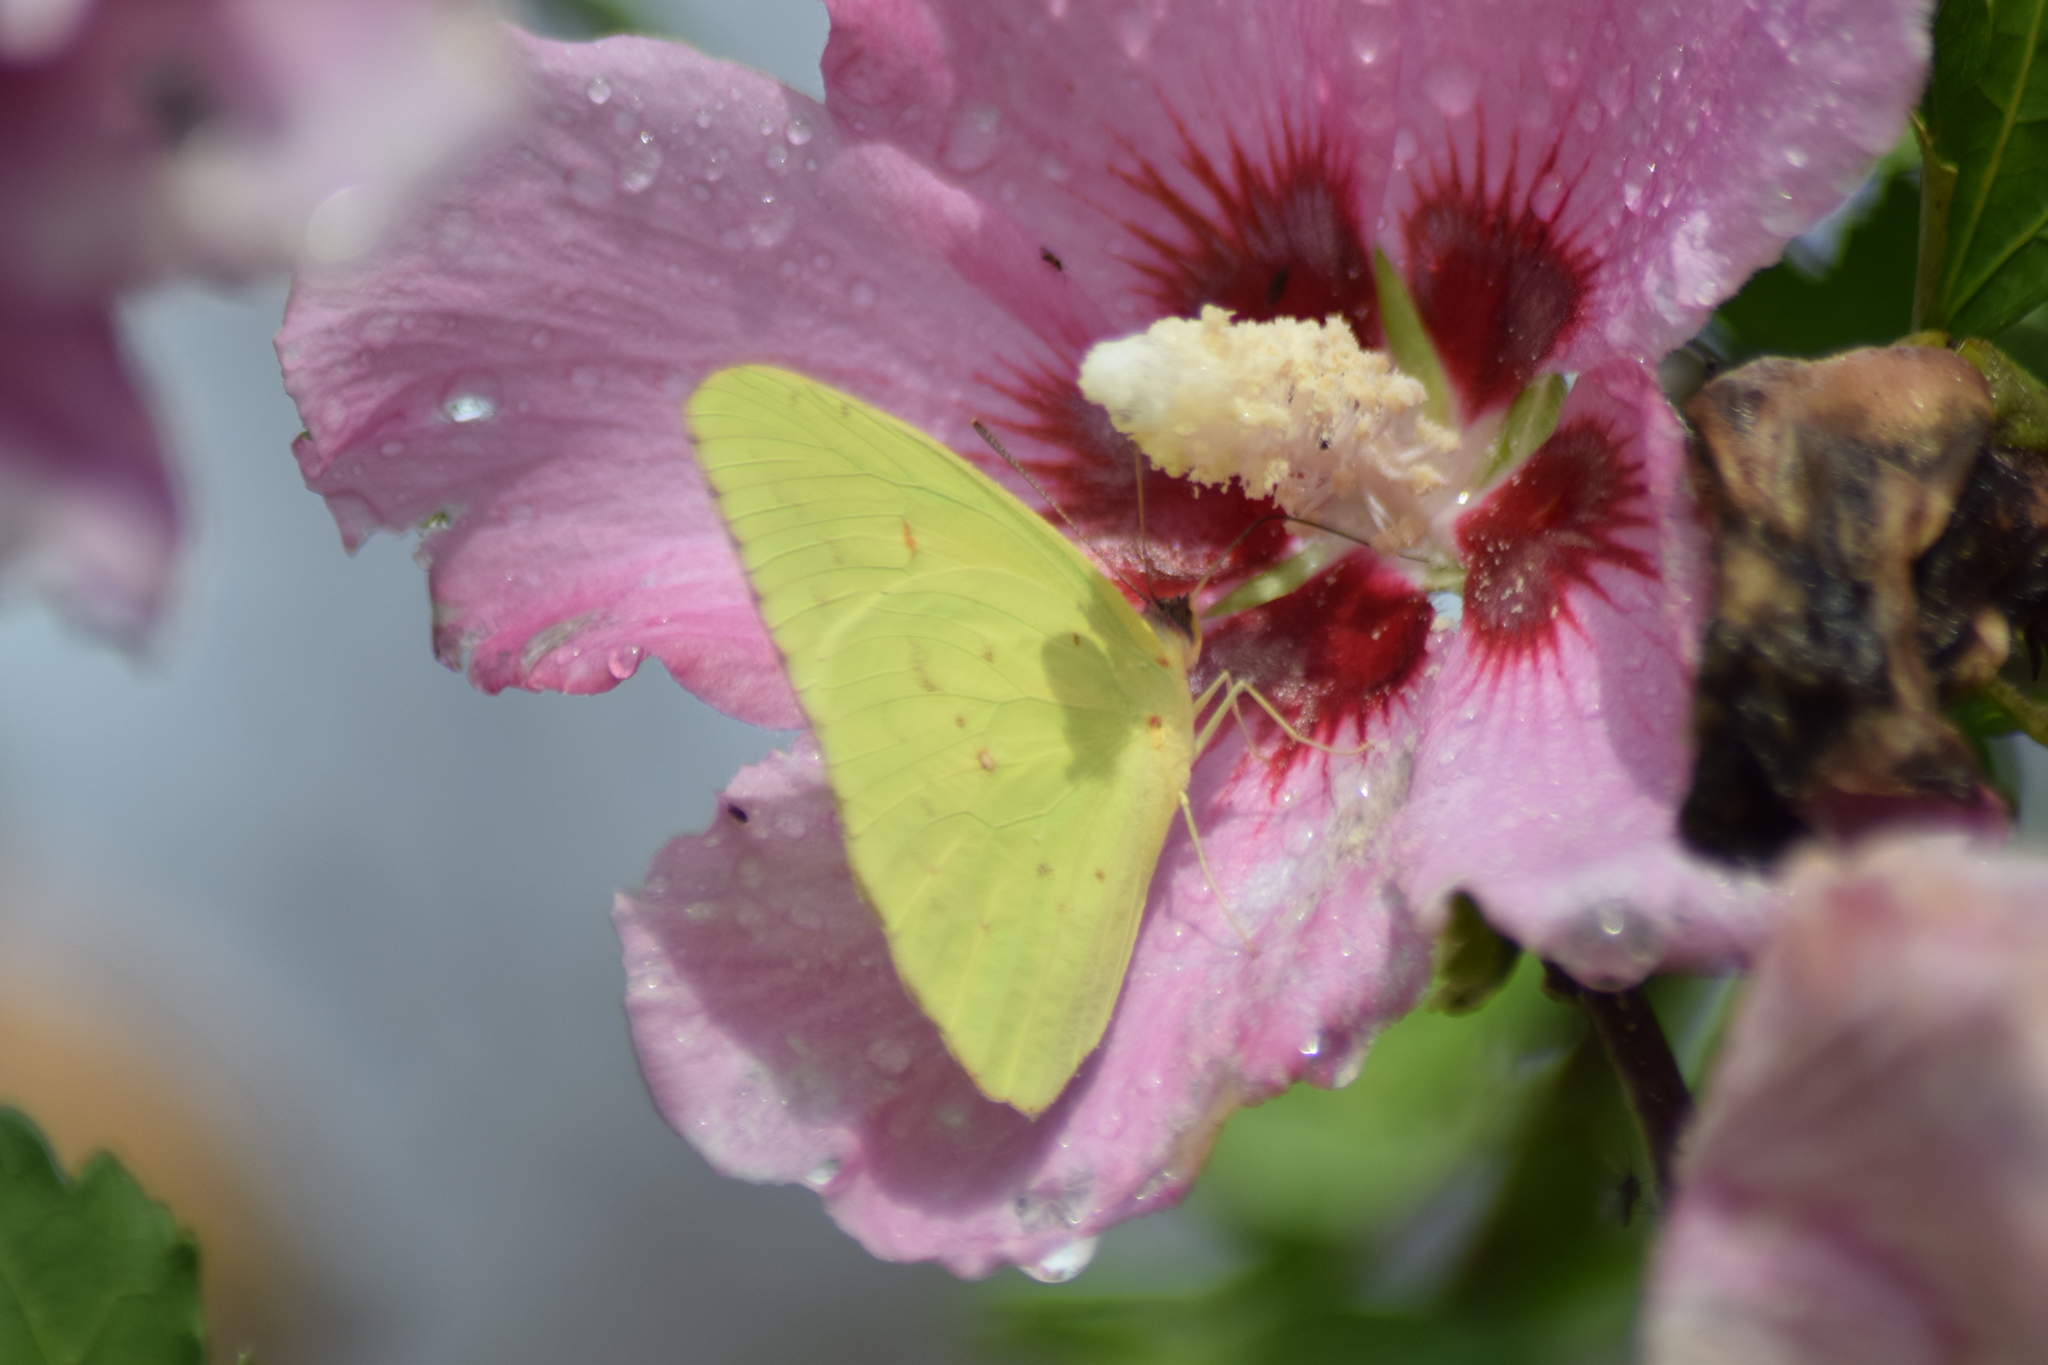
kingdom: Animalia
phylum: Arthropoda
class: Insecta
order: Lepidoptera
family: Pieridae
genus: Phoebis
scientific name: Phoebis sennae
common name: Cloudless sulphur
